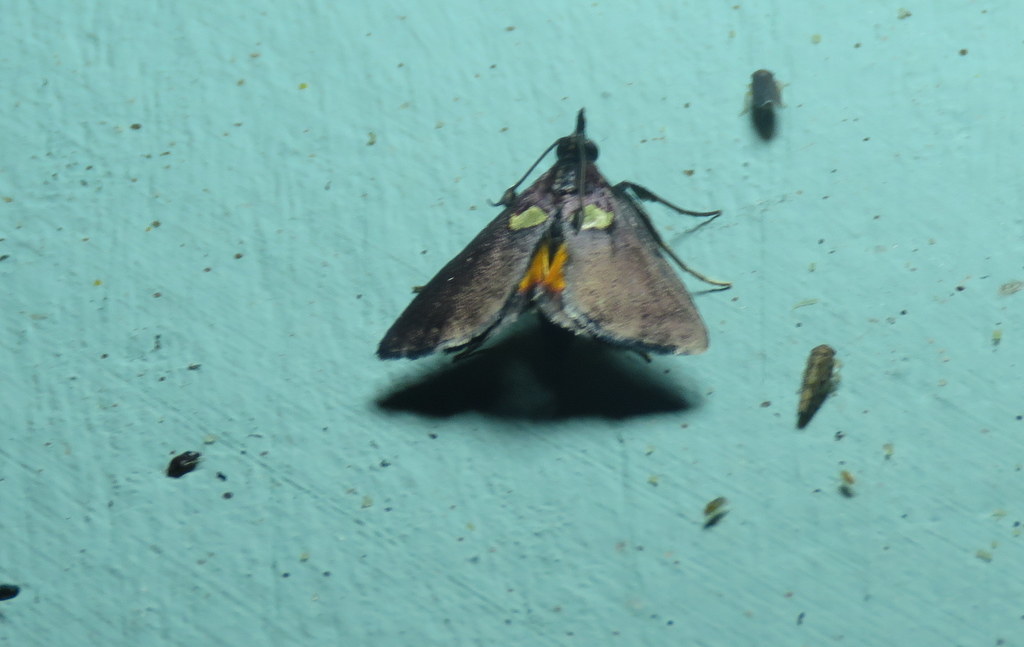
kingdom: Animalia
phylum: Arthropoda
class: Insecta
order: Lepidoptera
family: Pyralidae
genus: Semnia
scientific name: Semnia auritalis
